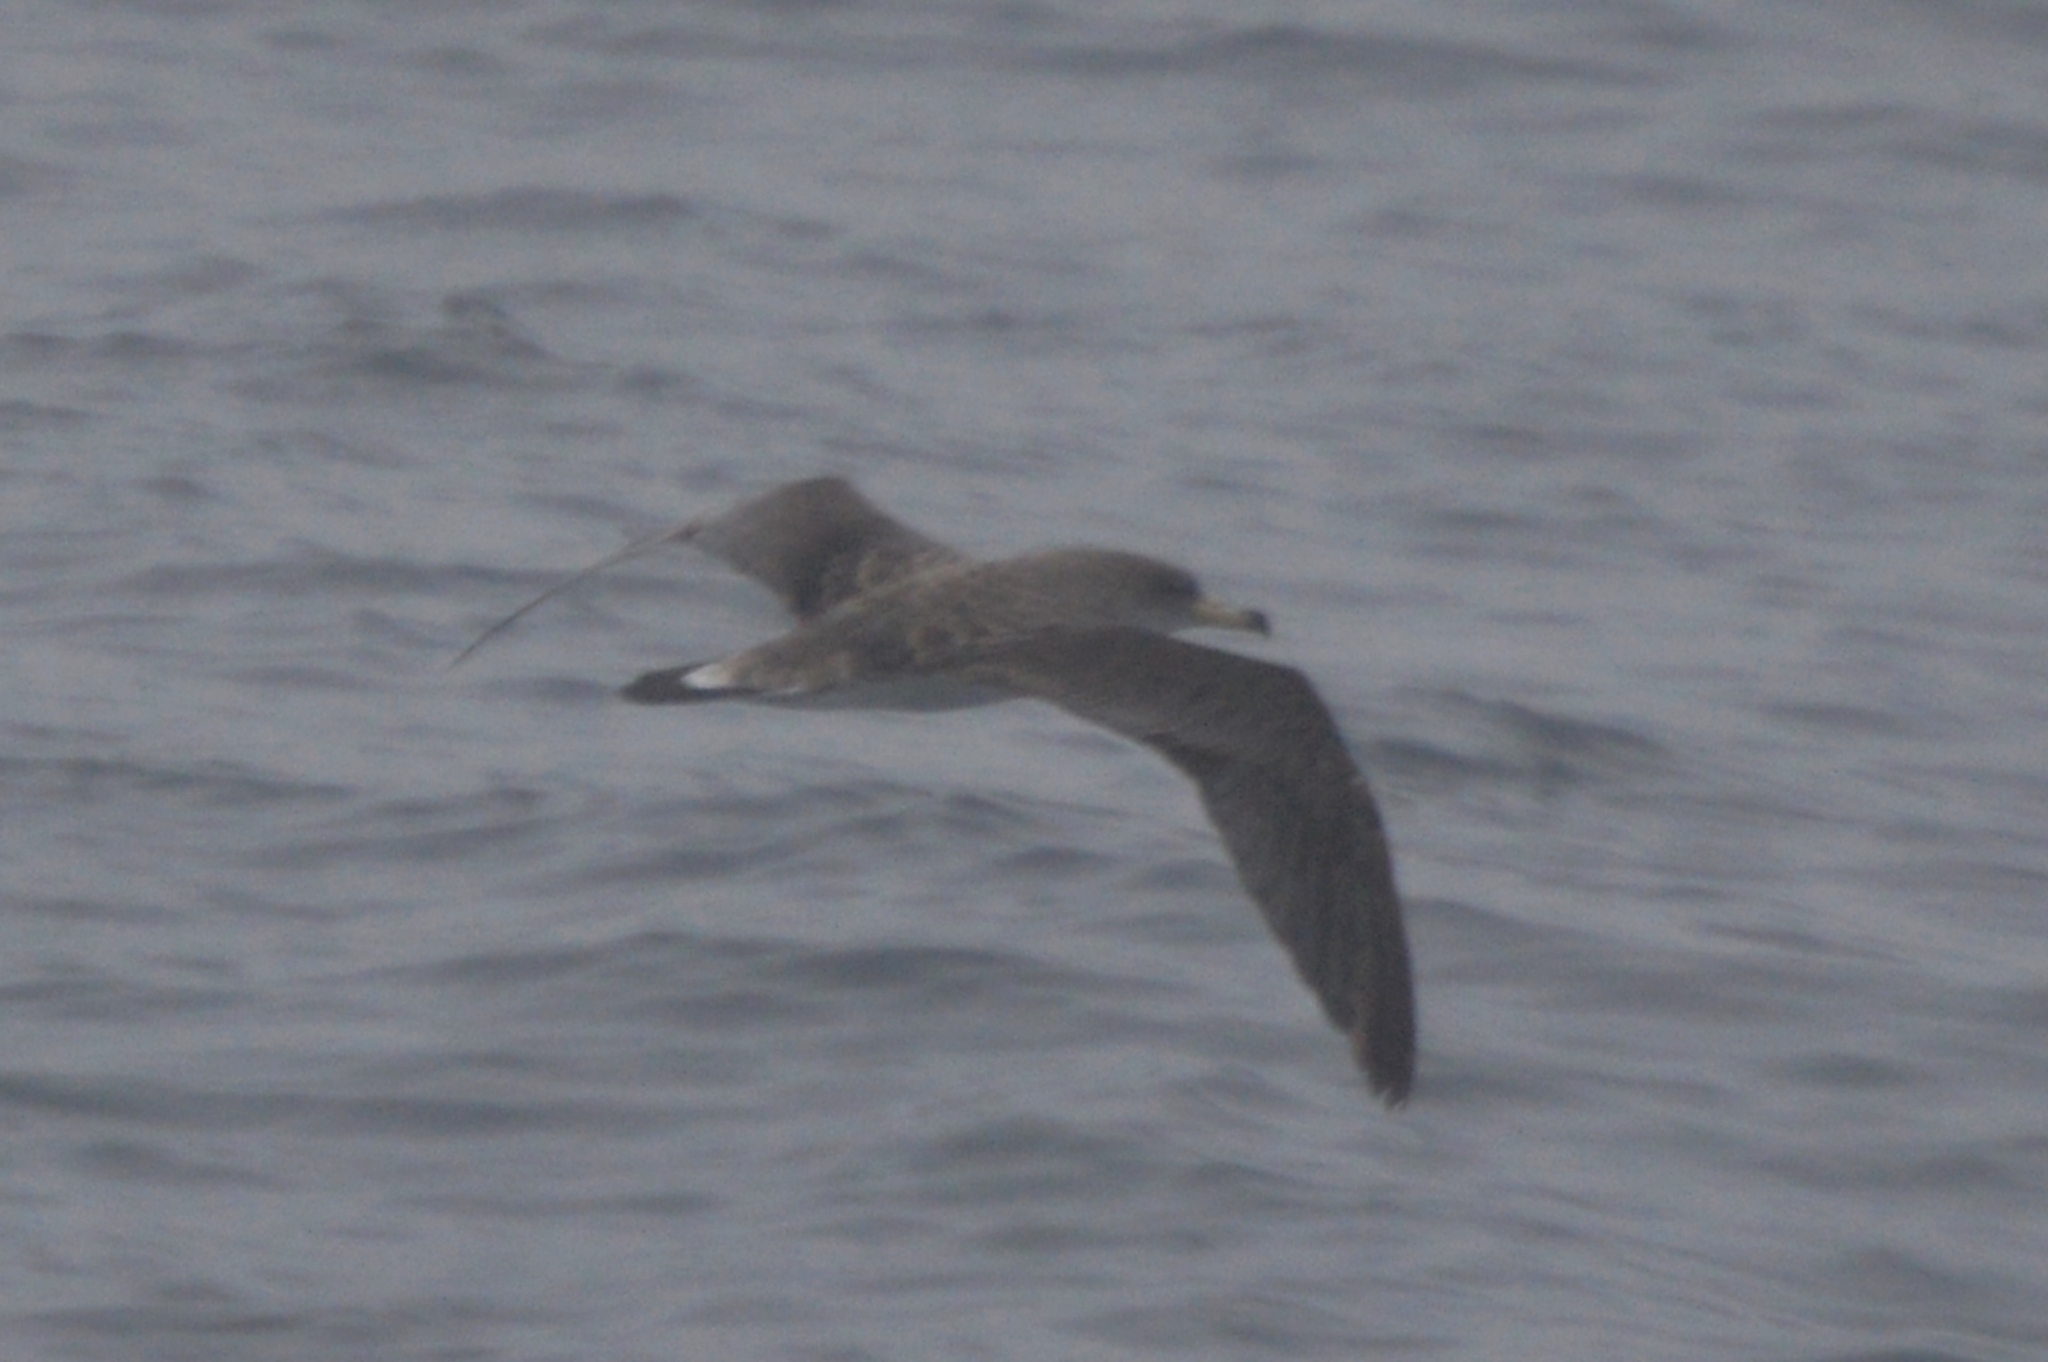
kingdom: Animalia
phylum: Chordata
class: Aves
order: Procellariiformes
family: Procellariidae
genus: Calonectris
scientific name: Calonectris diomedea
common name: Cory's shearwater
